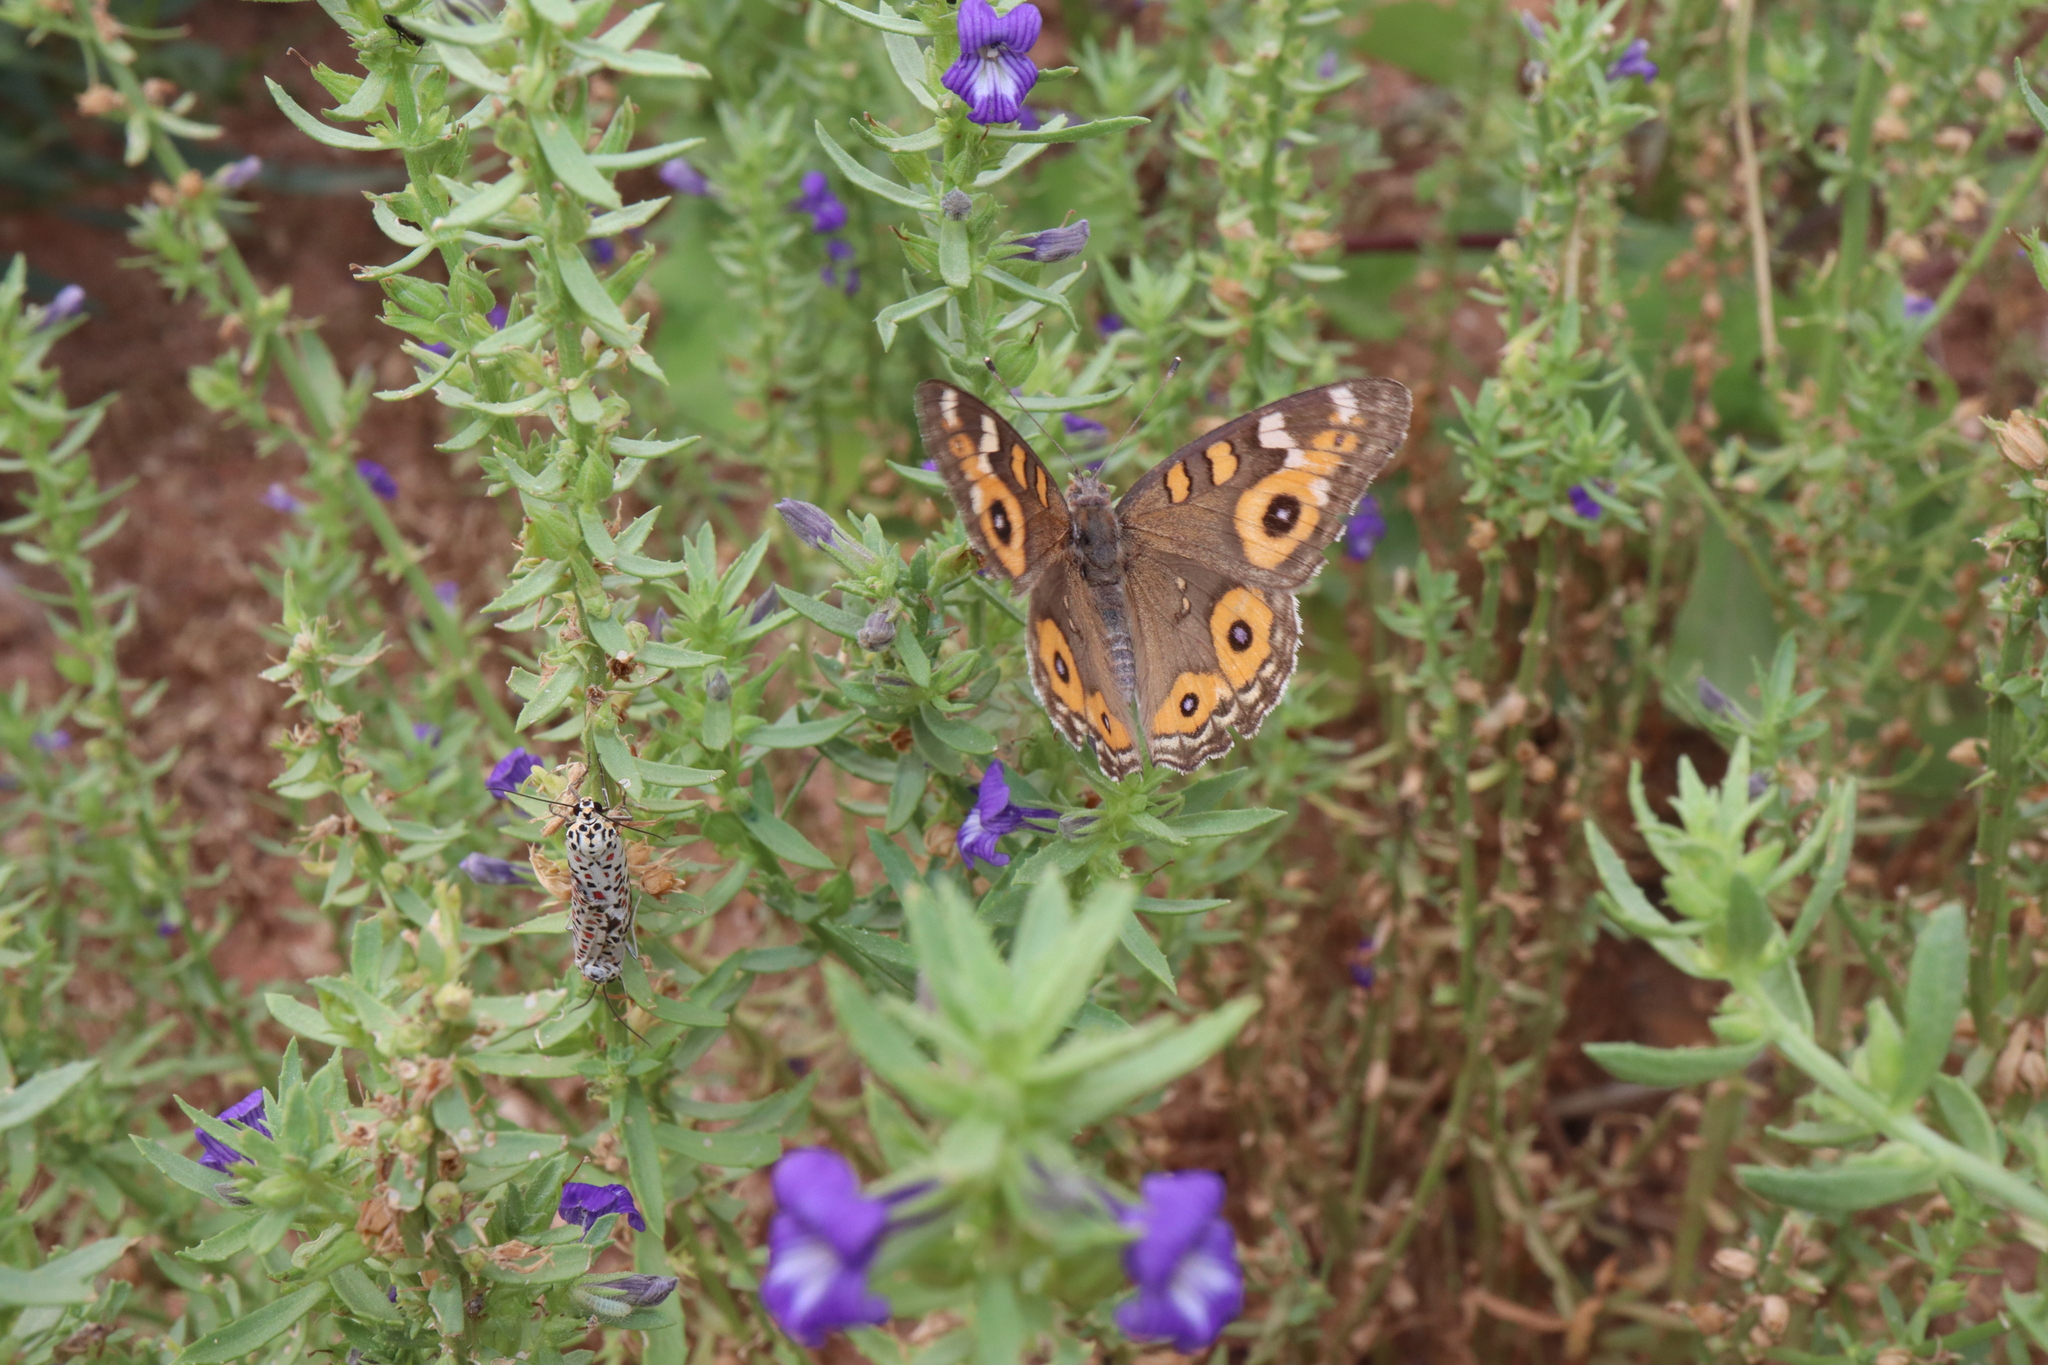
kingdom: Animalia
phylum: Arthropoda
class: Insecta
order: Lepidoptera
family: Nymphalidae
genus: Junonia
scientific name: Junonia villida
